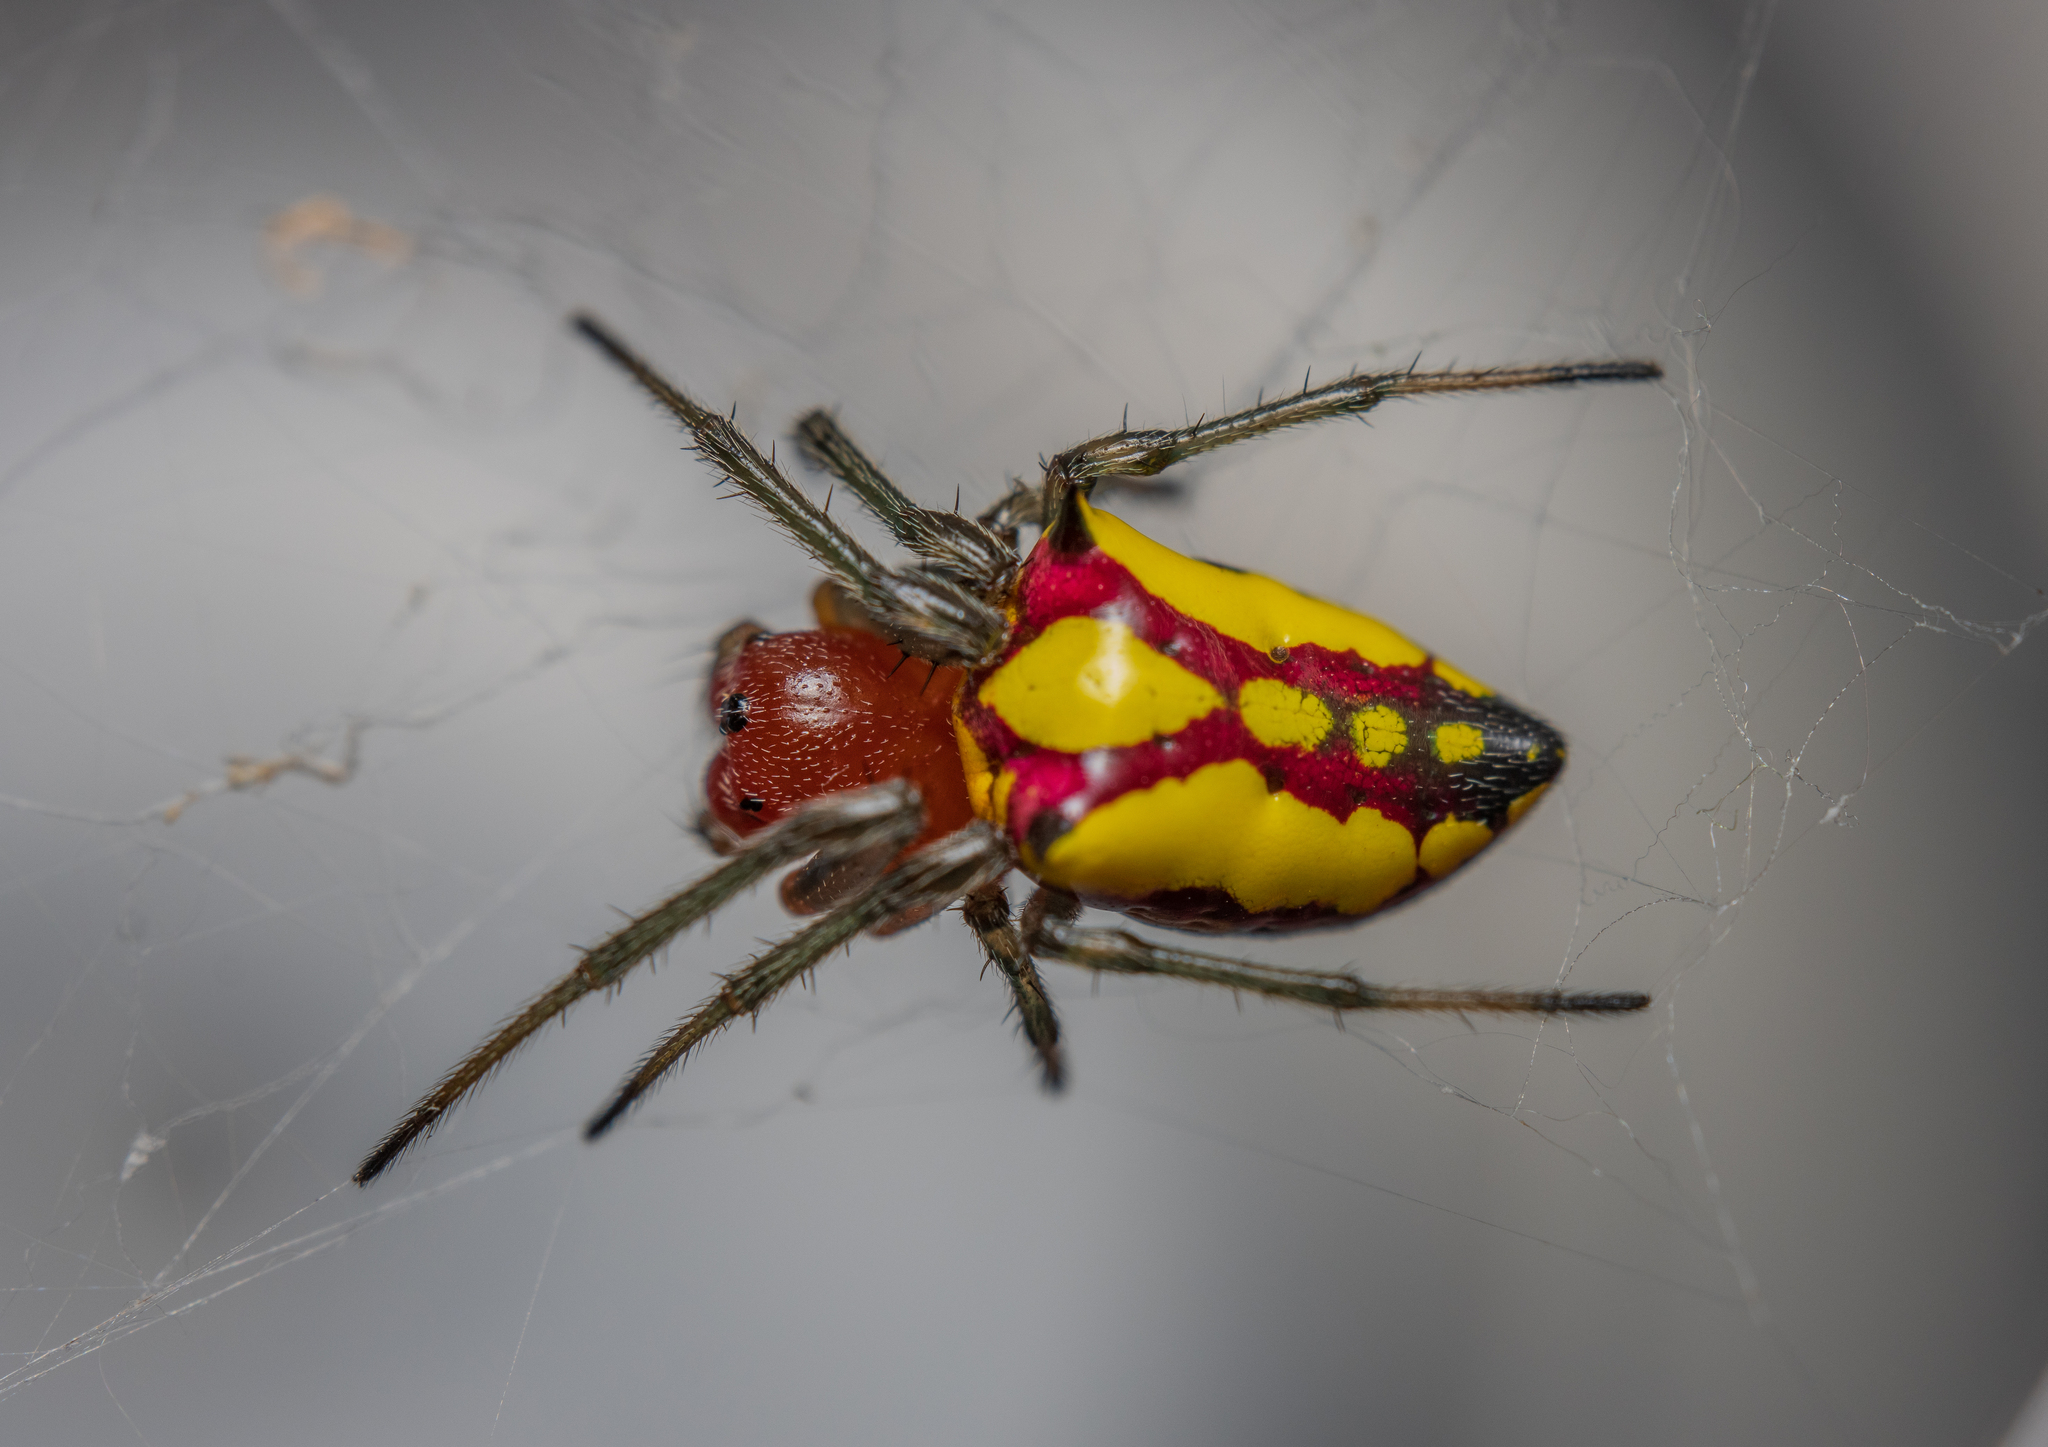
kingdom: Animalia
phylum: Arthropoda
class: Arachnida
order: Araneae
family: Araneidae
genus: Alpaida
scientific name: Alpaida bicornuta
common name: Orb weavers
